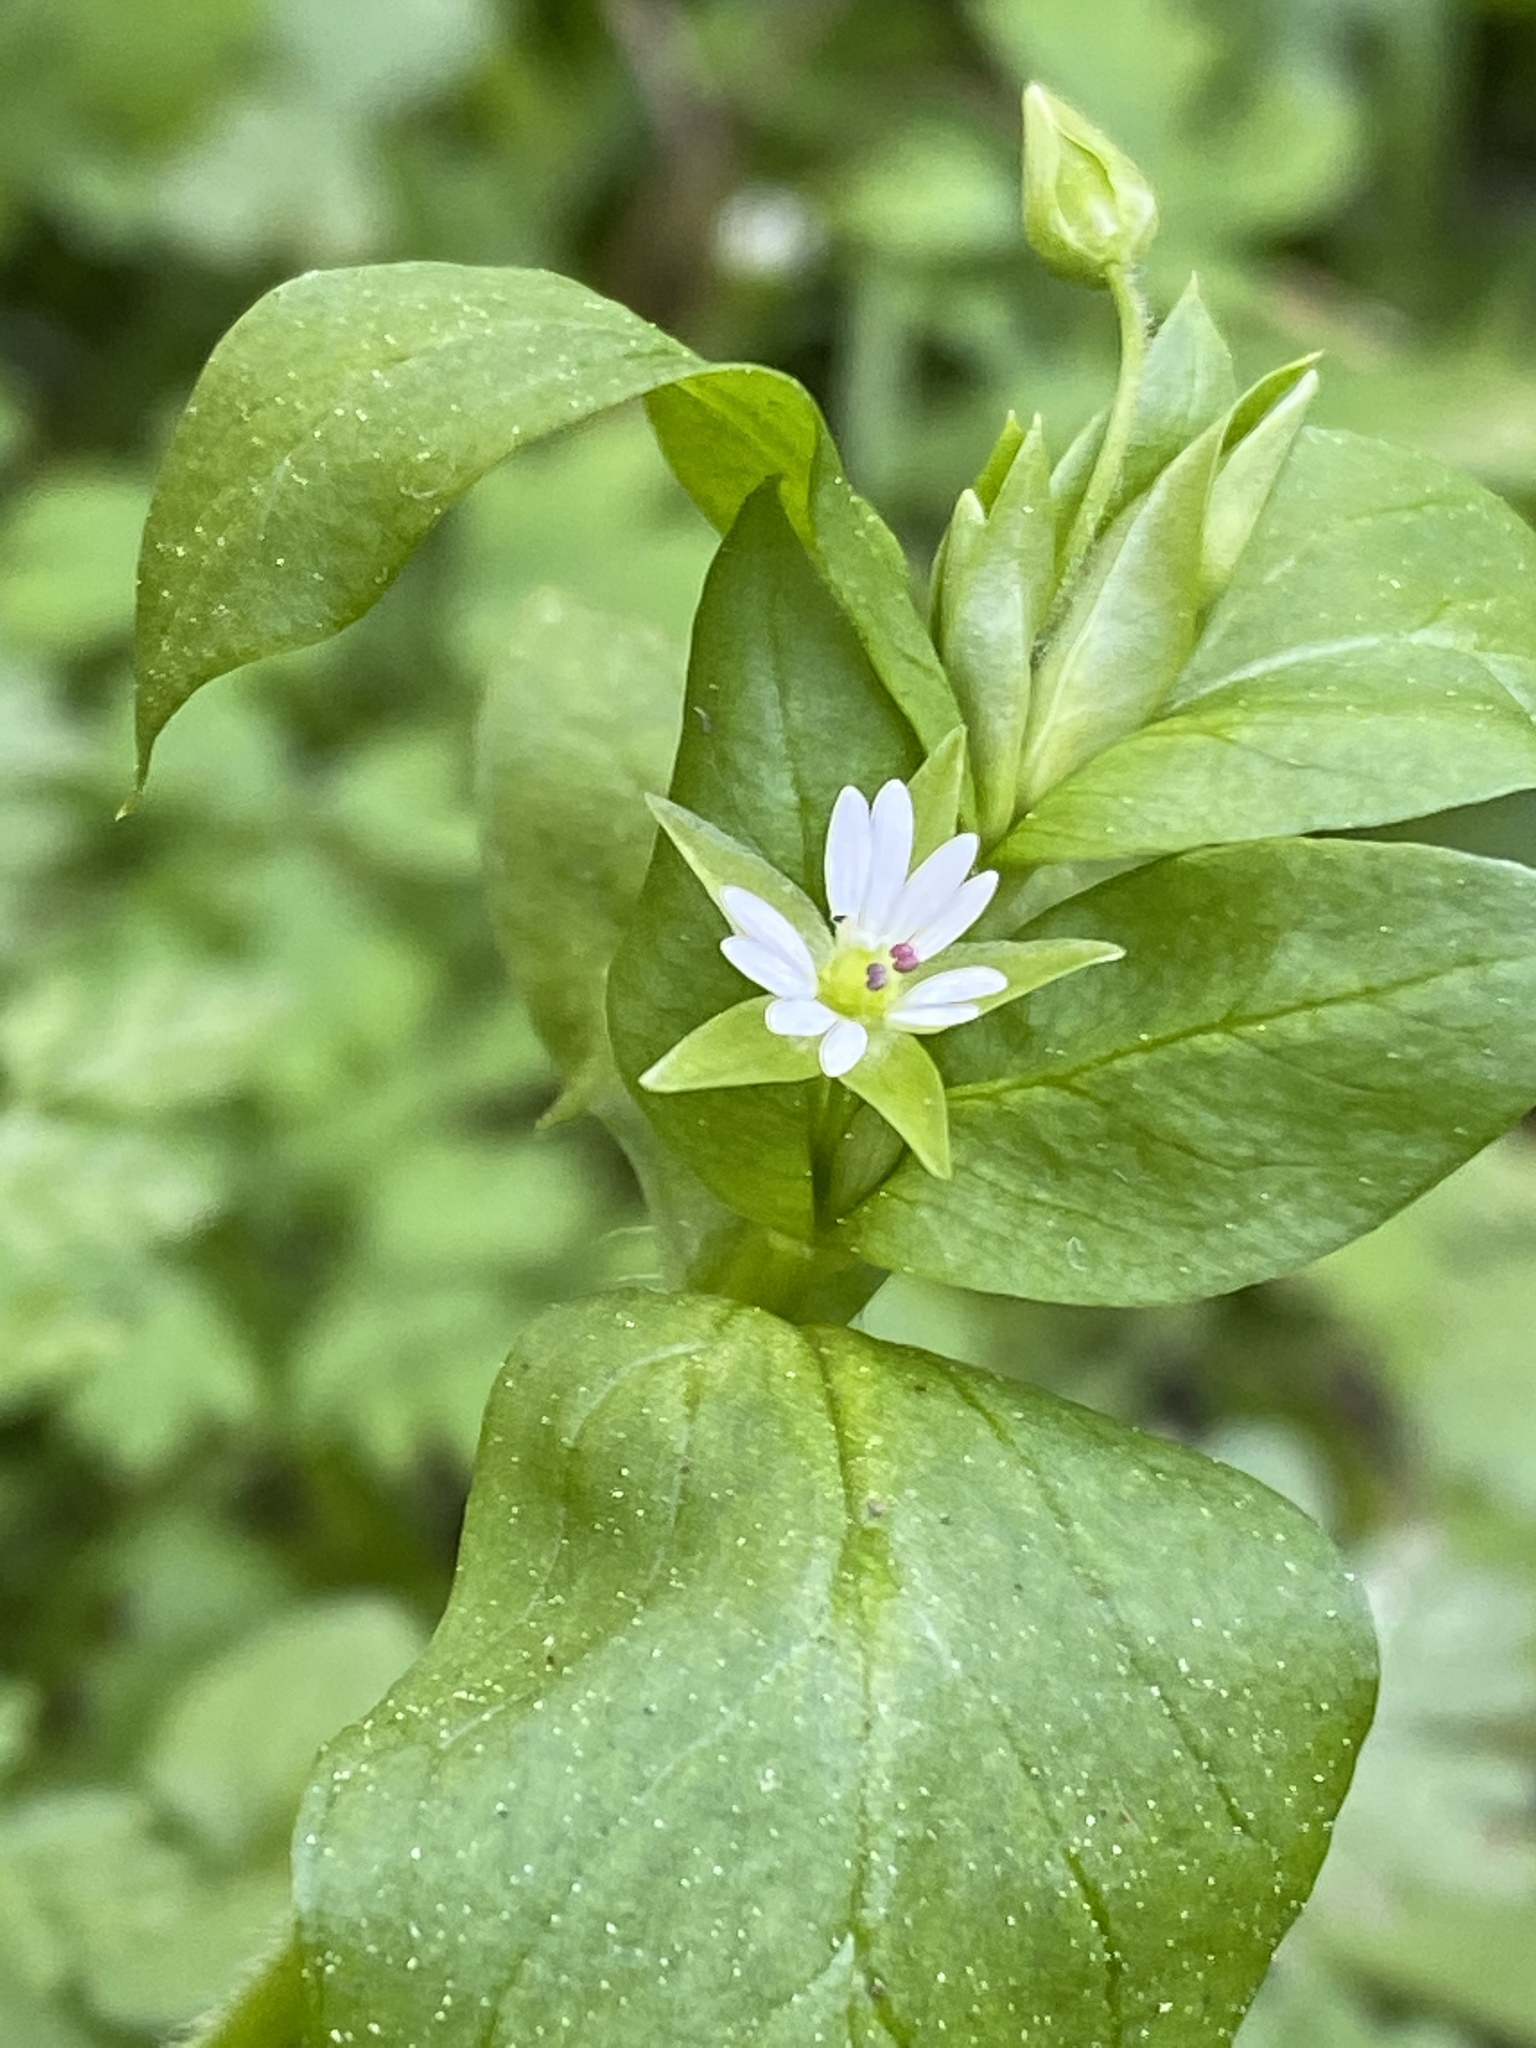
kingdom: Plantae
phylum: Tracheophyta
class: Magnoliopsida
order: Caryophyllales
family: Caryophyllaceae
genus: Stellaria
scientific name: Stellaria media
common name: Common chickweed
